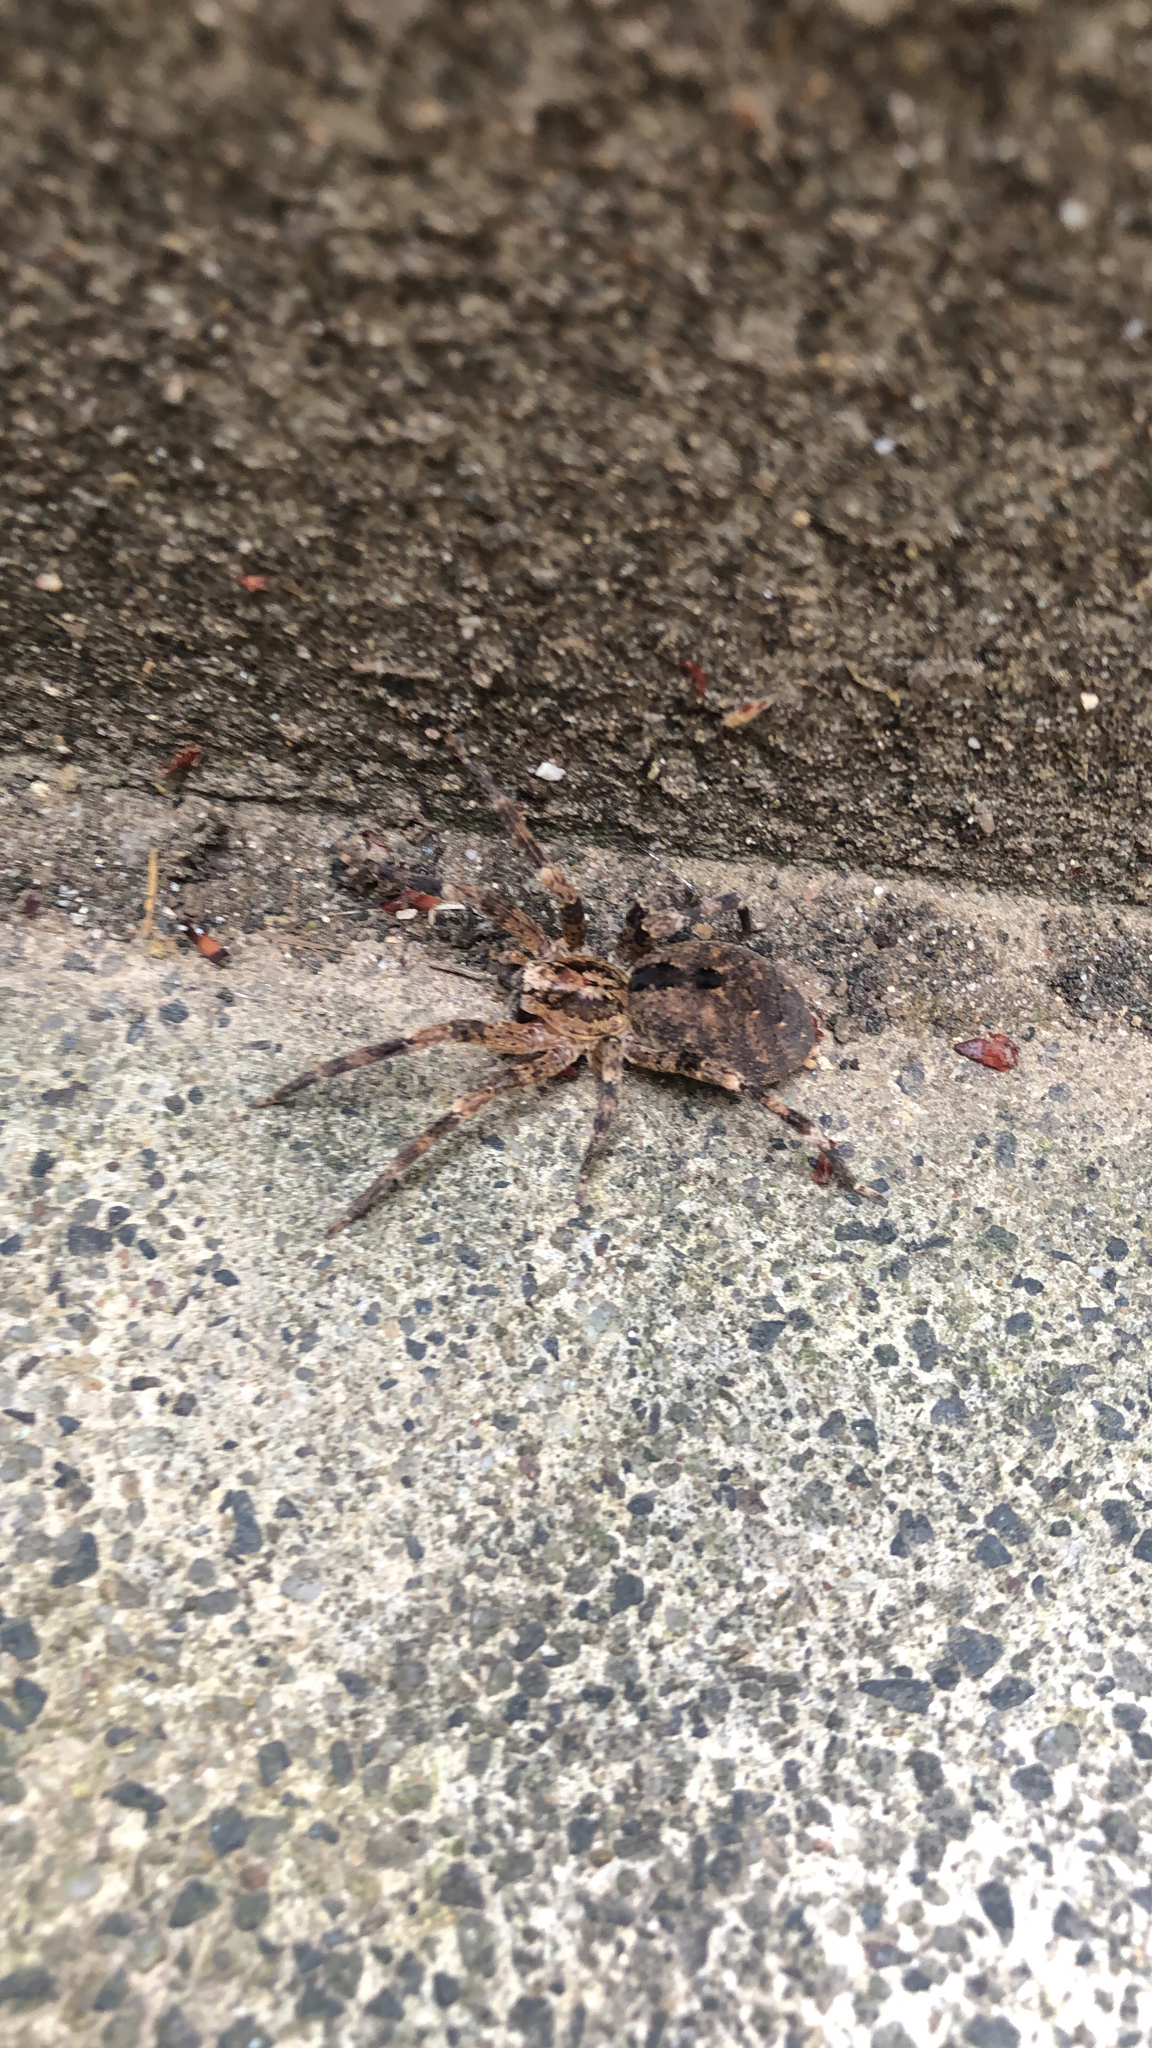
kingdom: Animalia
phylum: Arthropoda
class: Arachnida
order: Araneae
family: Zoropsidae
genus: Zoropsis
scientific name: Zoropsis spinimana
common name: Zoropsid spider
